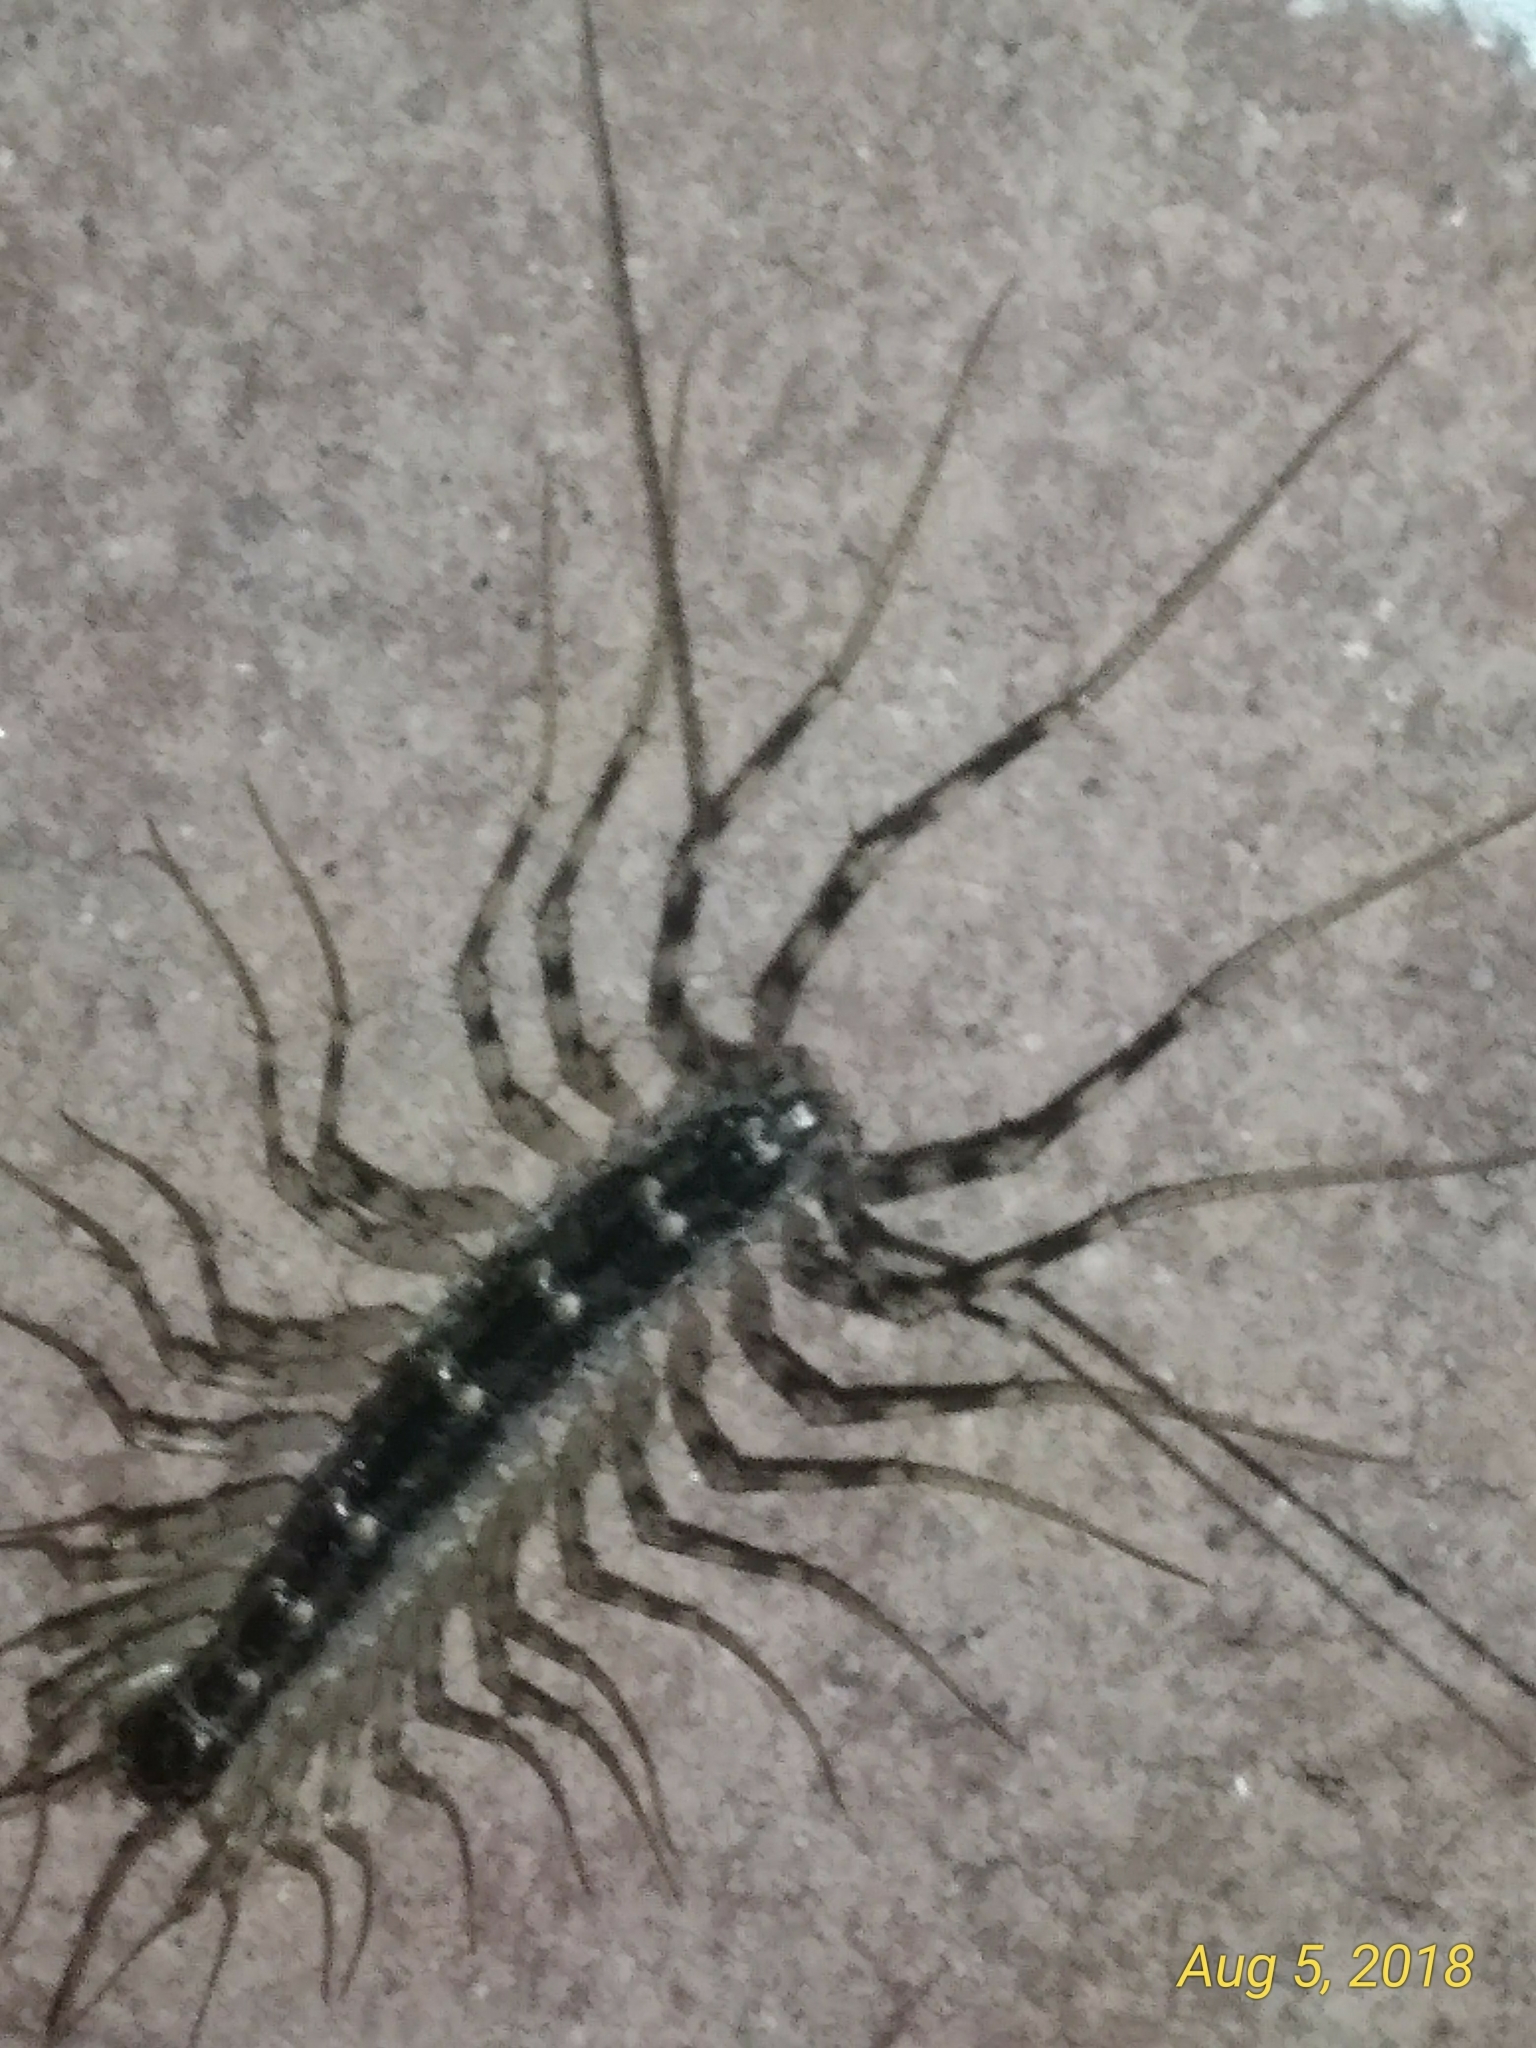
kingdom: Animalia
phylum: Arthropoda
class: Chilopoda
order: Scutigeromorpha
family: Scutigeridae
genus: Scutigera
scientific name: Scutigera coleoptrata
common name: House centipede
